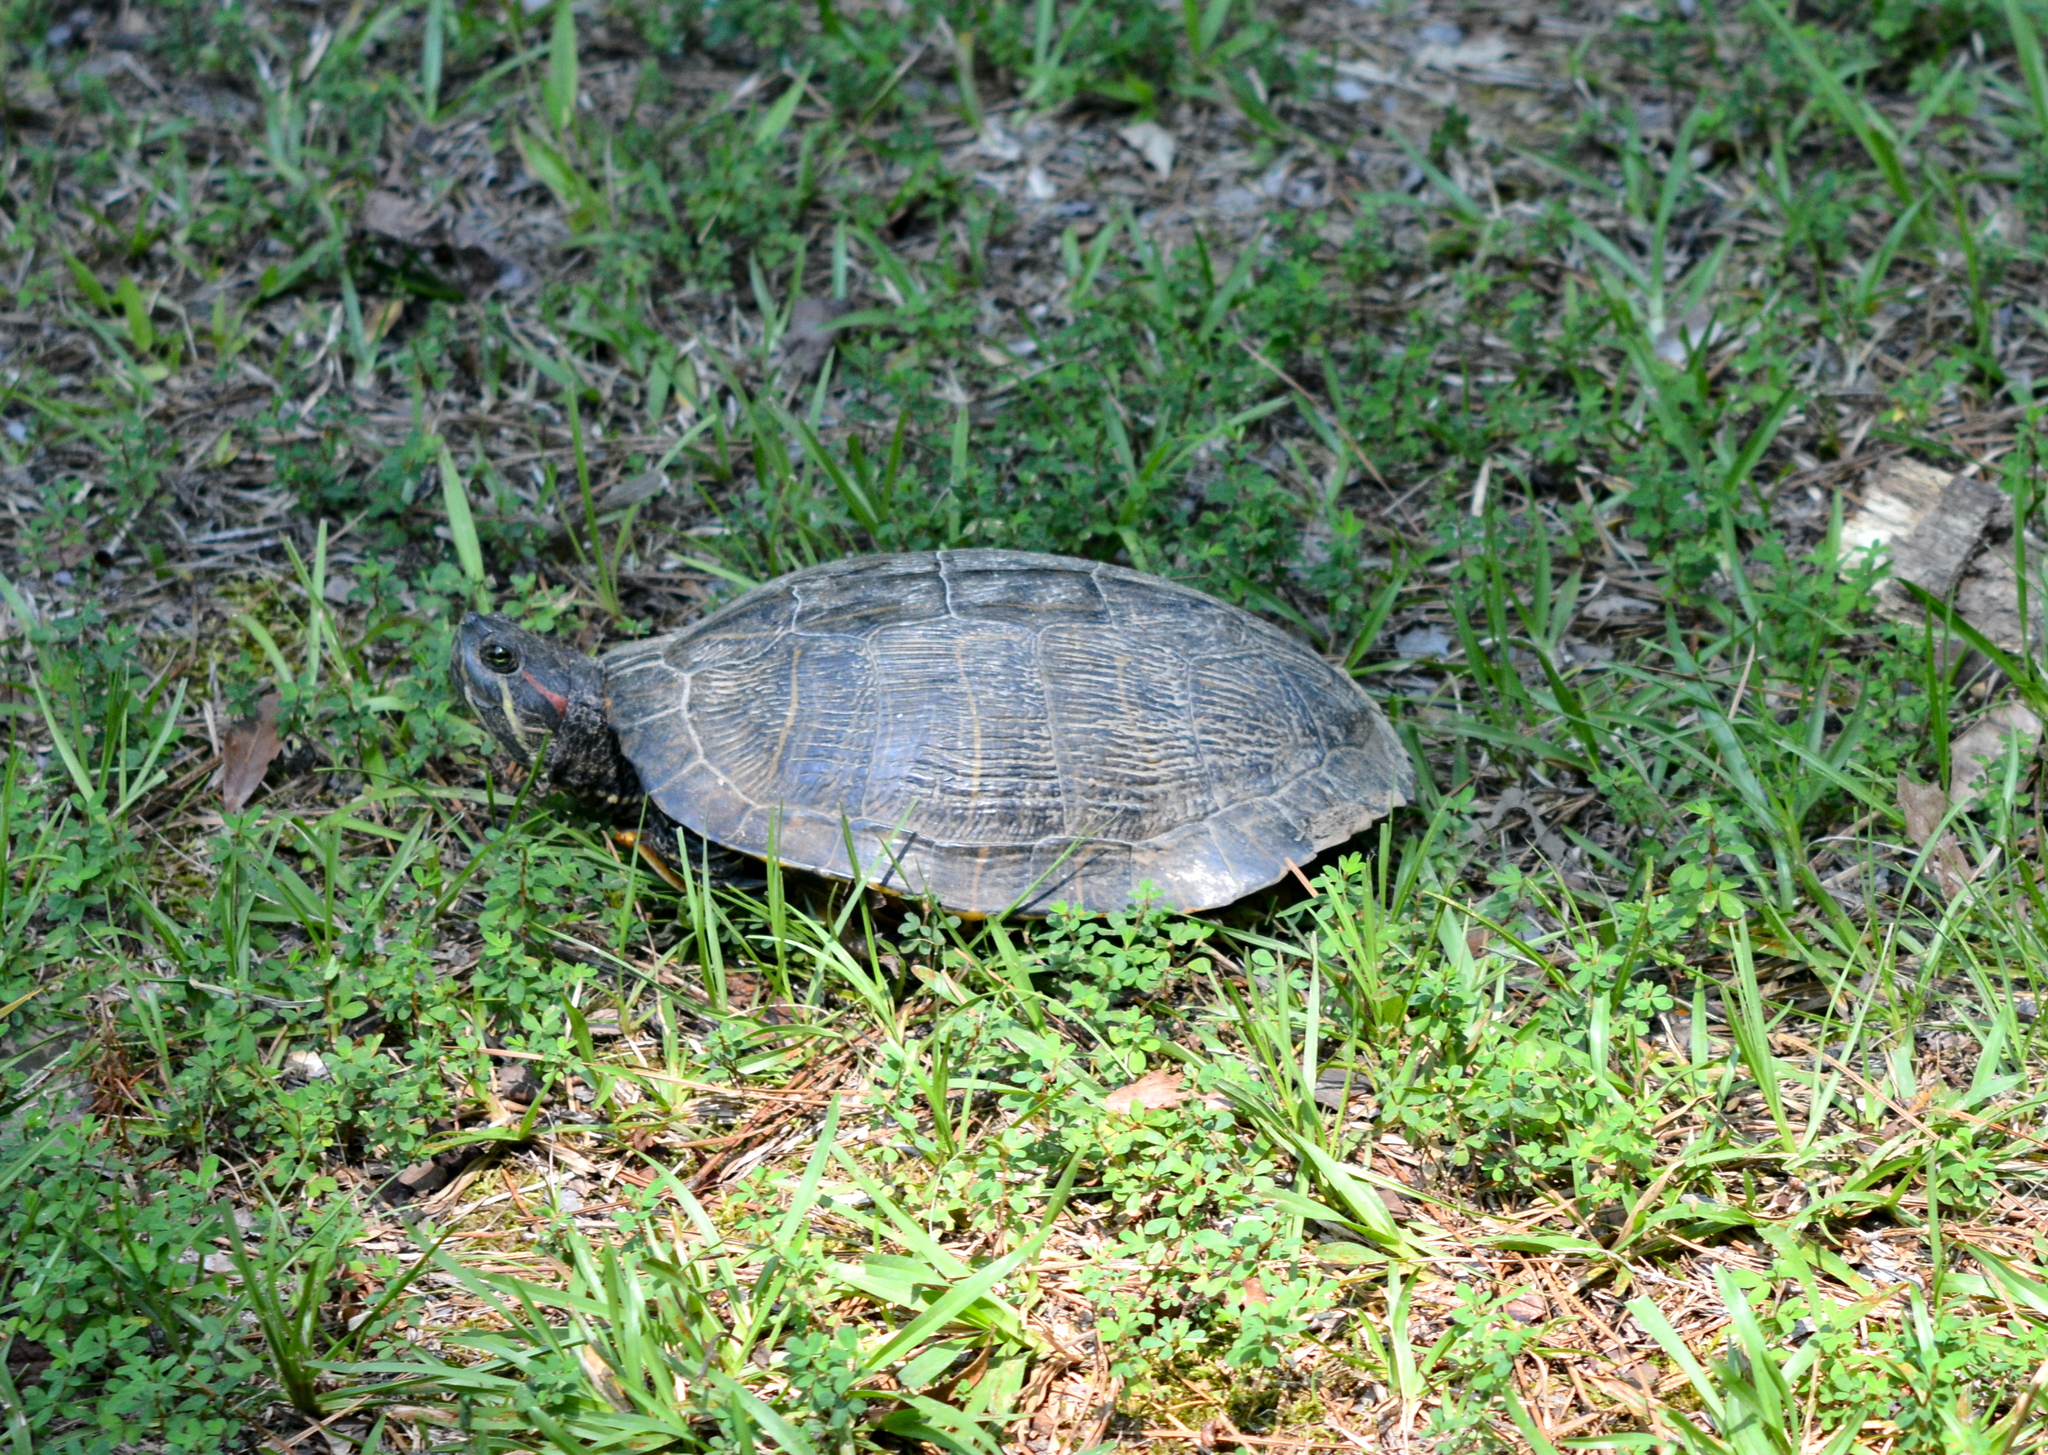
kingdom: Animalia
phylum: Chordata
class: Testudines
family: Emydidae
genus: Trachemys
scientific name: Trachemys scripta
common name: Slider
